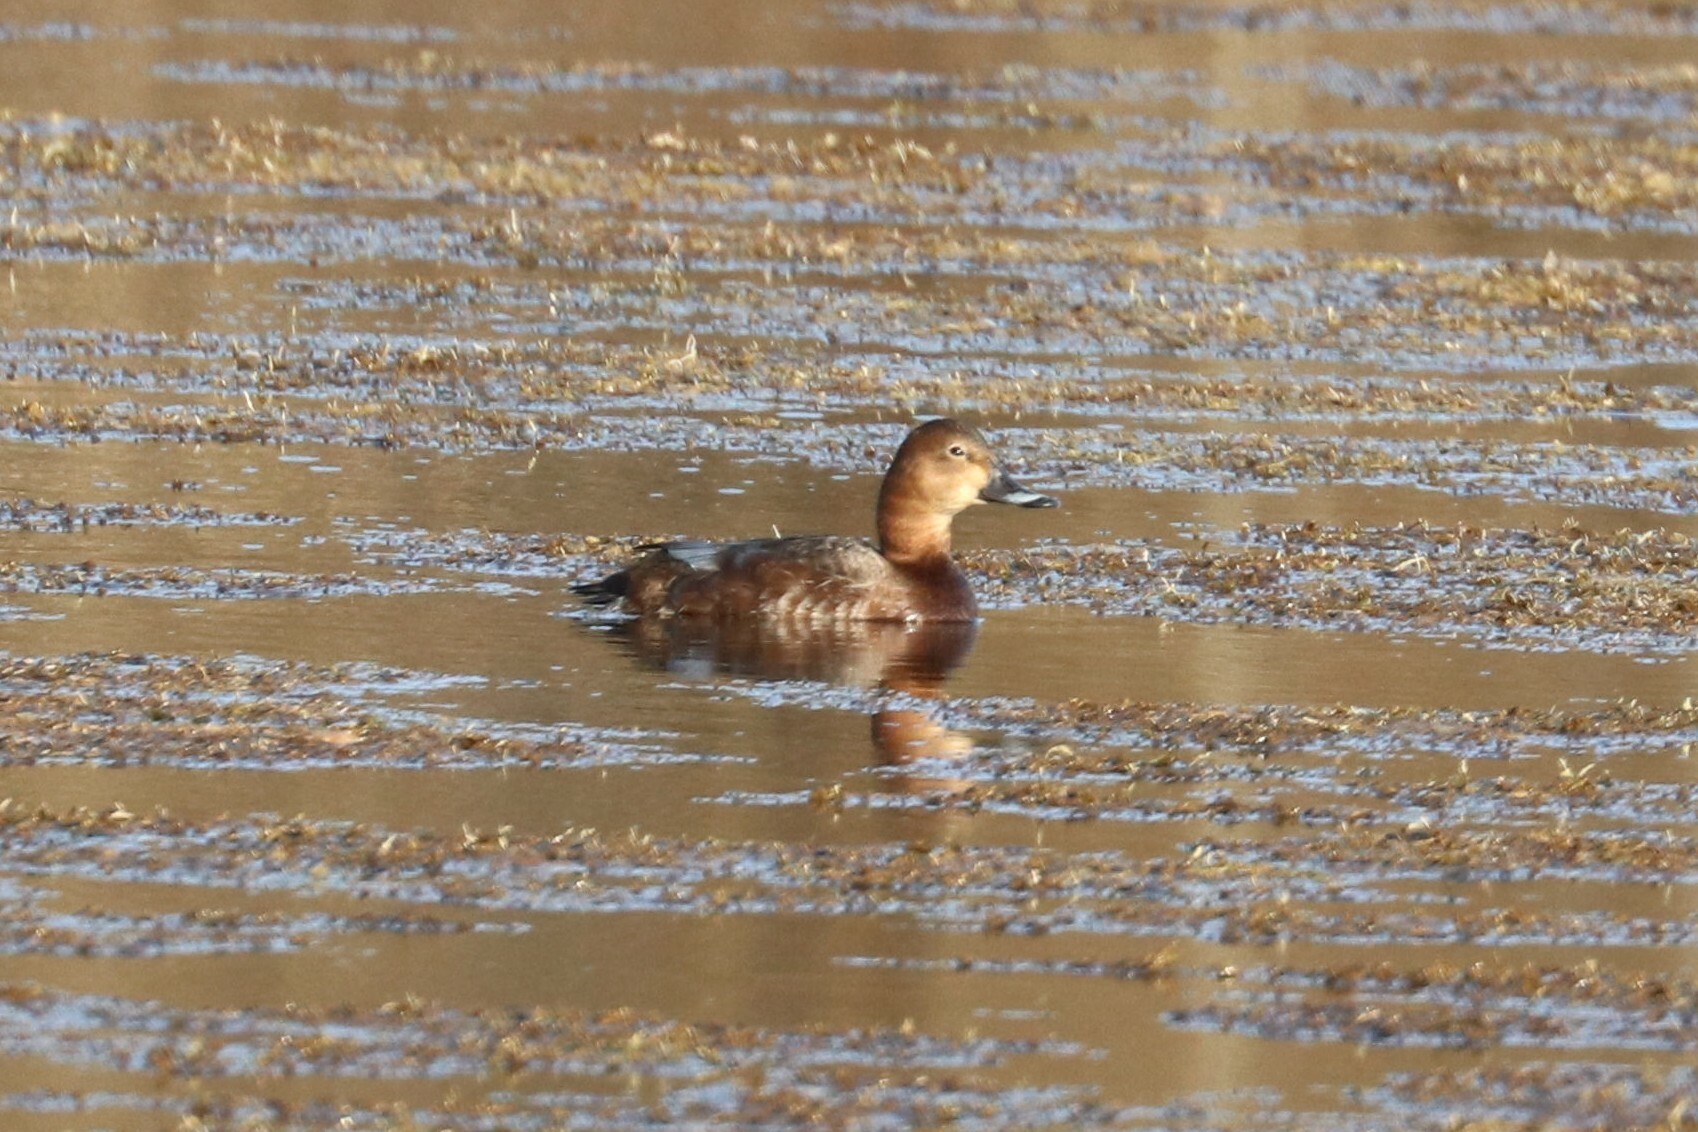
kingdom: Animalia
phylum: Chordata
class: Aves
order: Anseriformes
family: Anatidae
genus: Aythya
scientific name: Aythya ferina
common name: Common pochard
